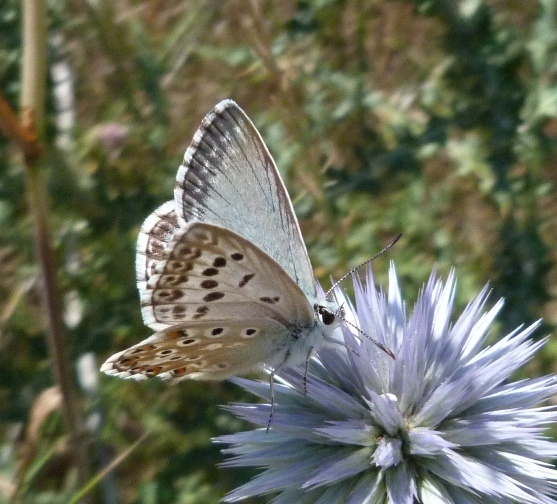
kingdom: Animalia
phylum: Arthropoda
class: Insecta
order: Lepidoptera
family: Lycaenidae
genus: Lysandra
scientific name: Lysandra hispana
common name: Provence chalkhill blue
